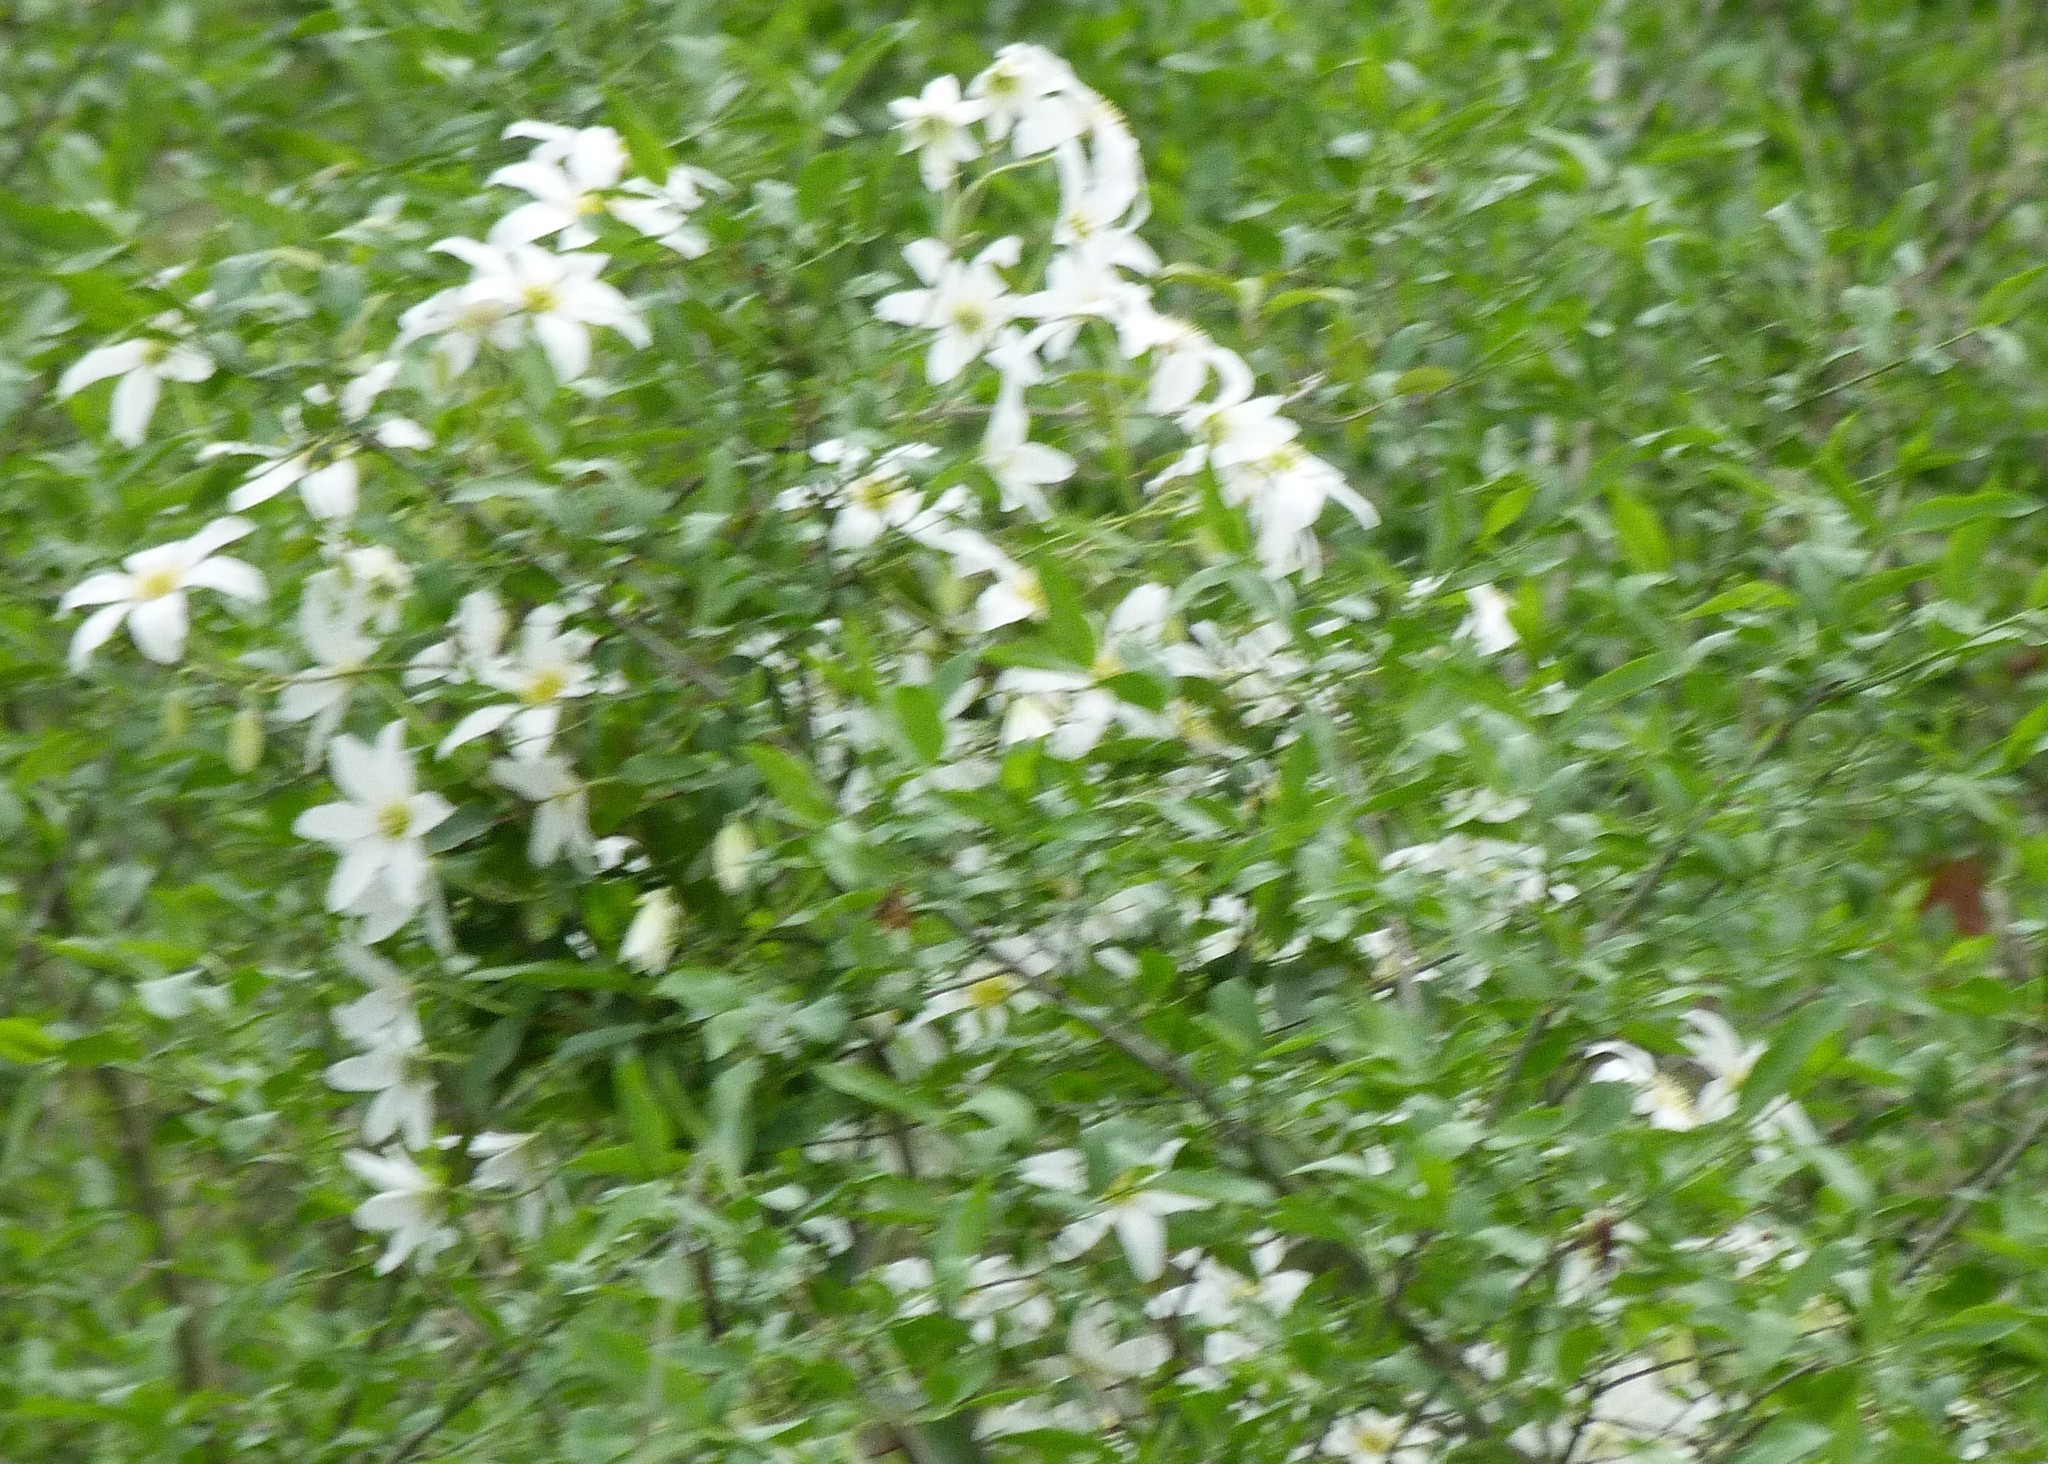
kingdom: Plantae
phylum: Tracheophyta
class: Magnoliopsida
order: Ranunculales
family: Ranunculaceae
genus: Clematis
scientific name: Clematis paniculata
